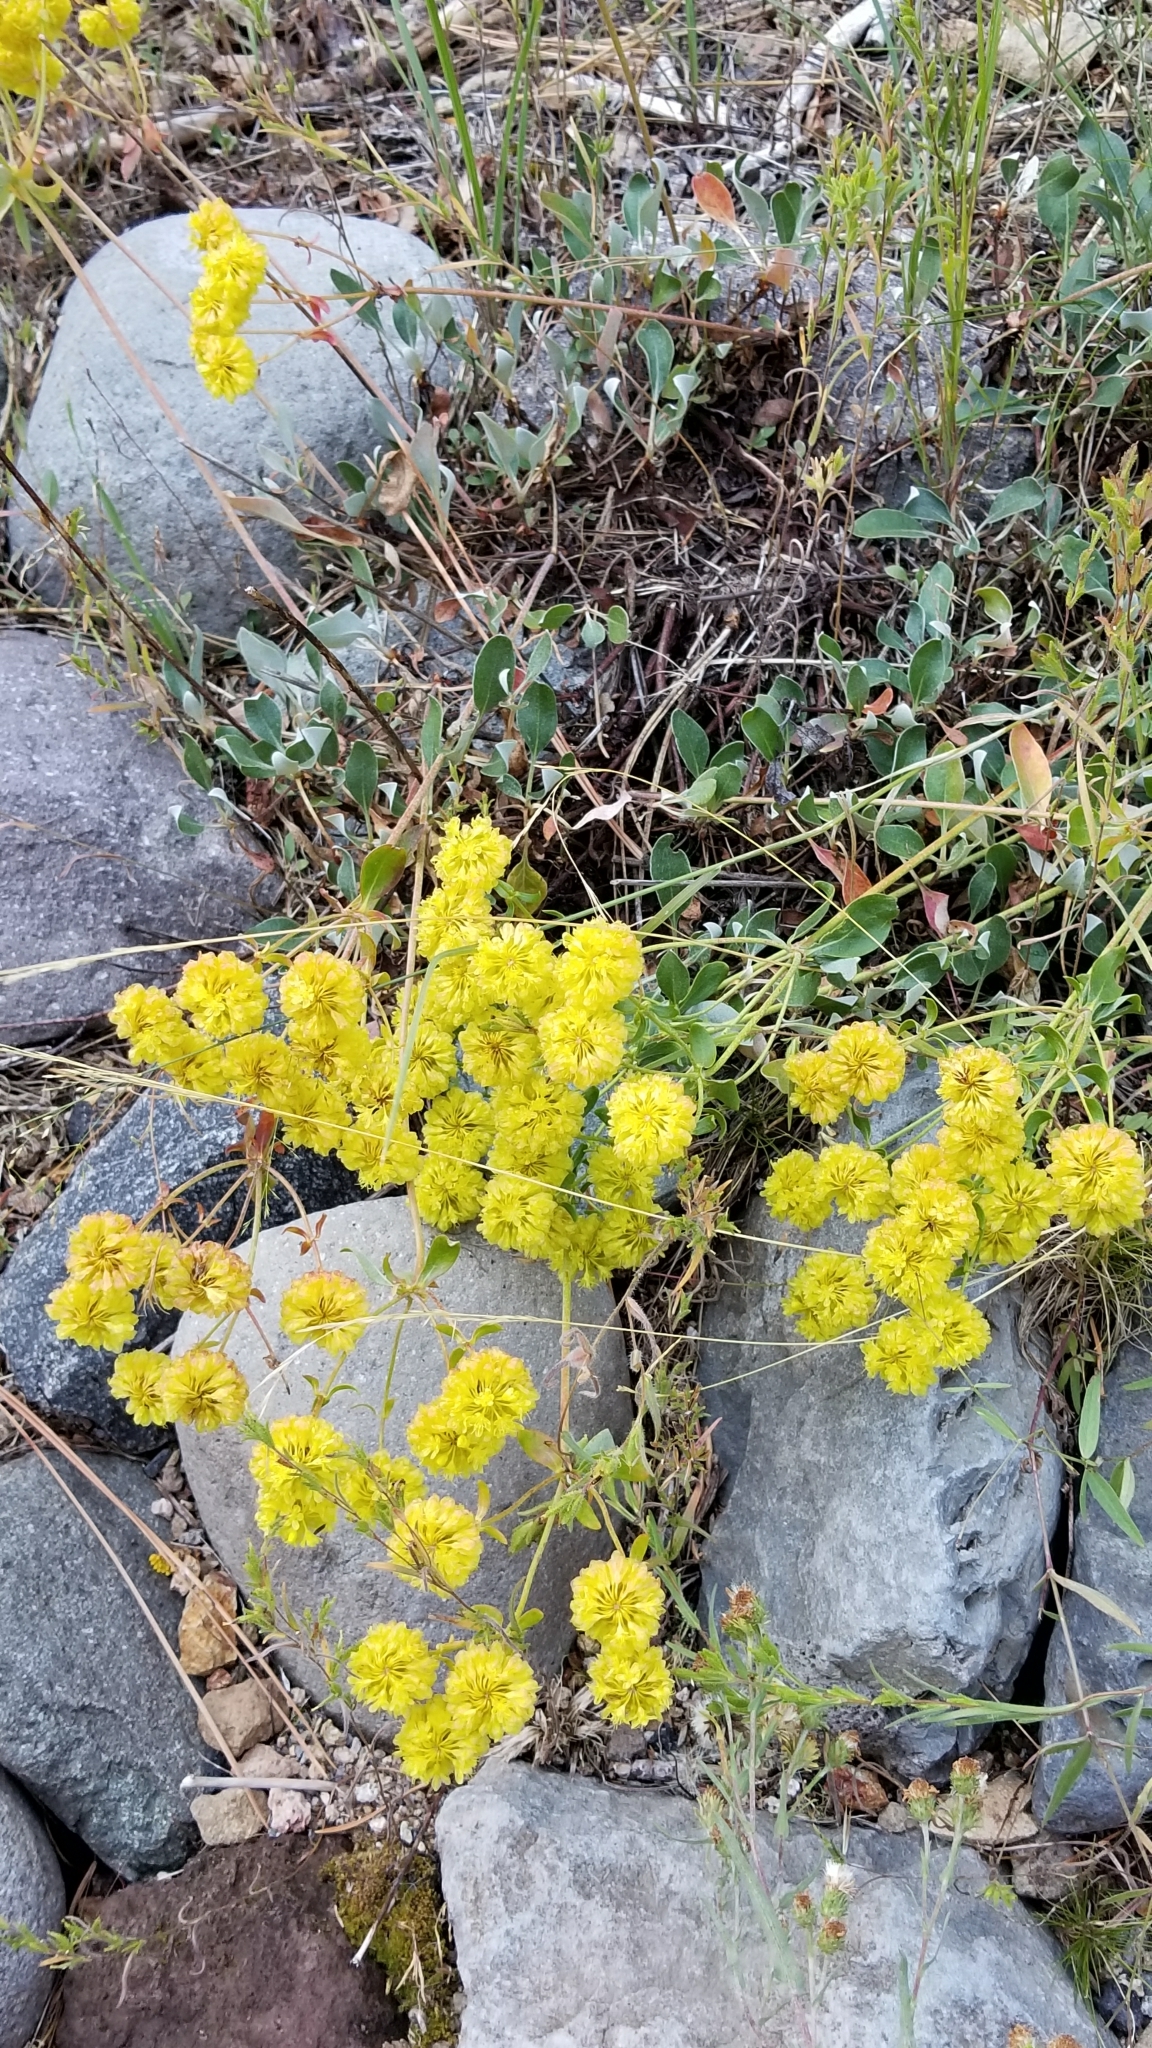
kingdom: Plantae
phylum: Tracheophyta
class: Magnoliopsida
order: Caryophyllales
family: Polygonaceae
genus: Eriogonum
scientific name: Eriogonum umbellatum
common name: Sulfur-buckwheat
